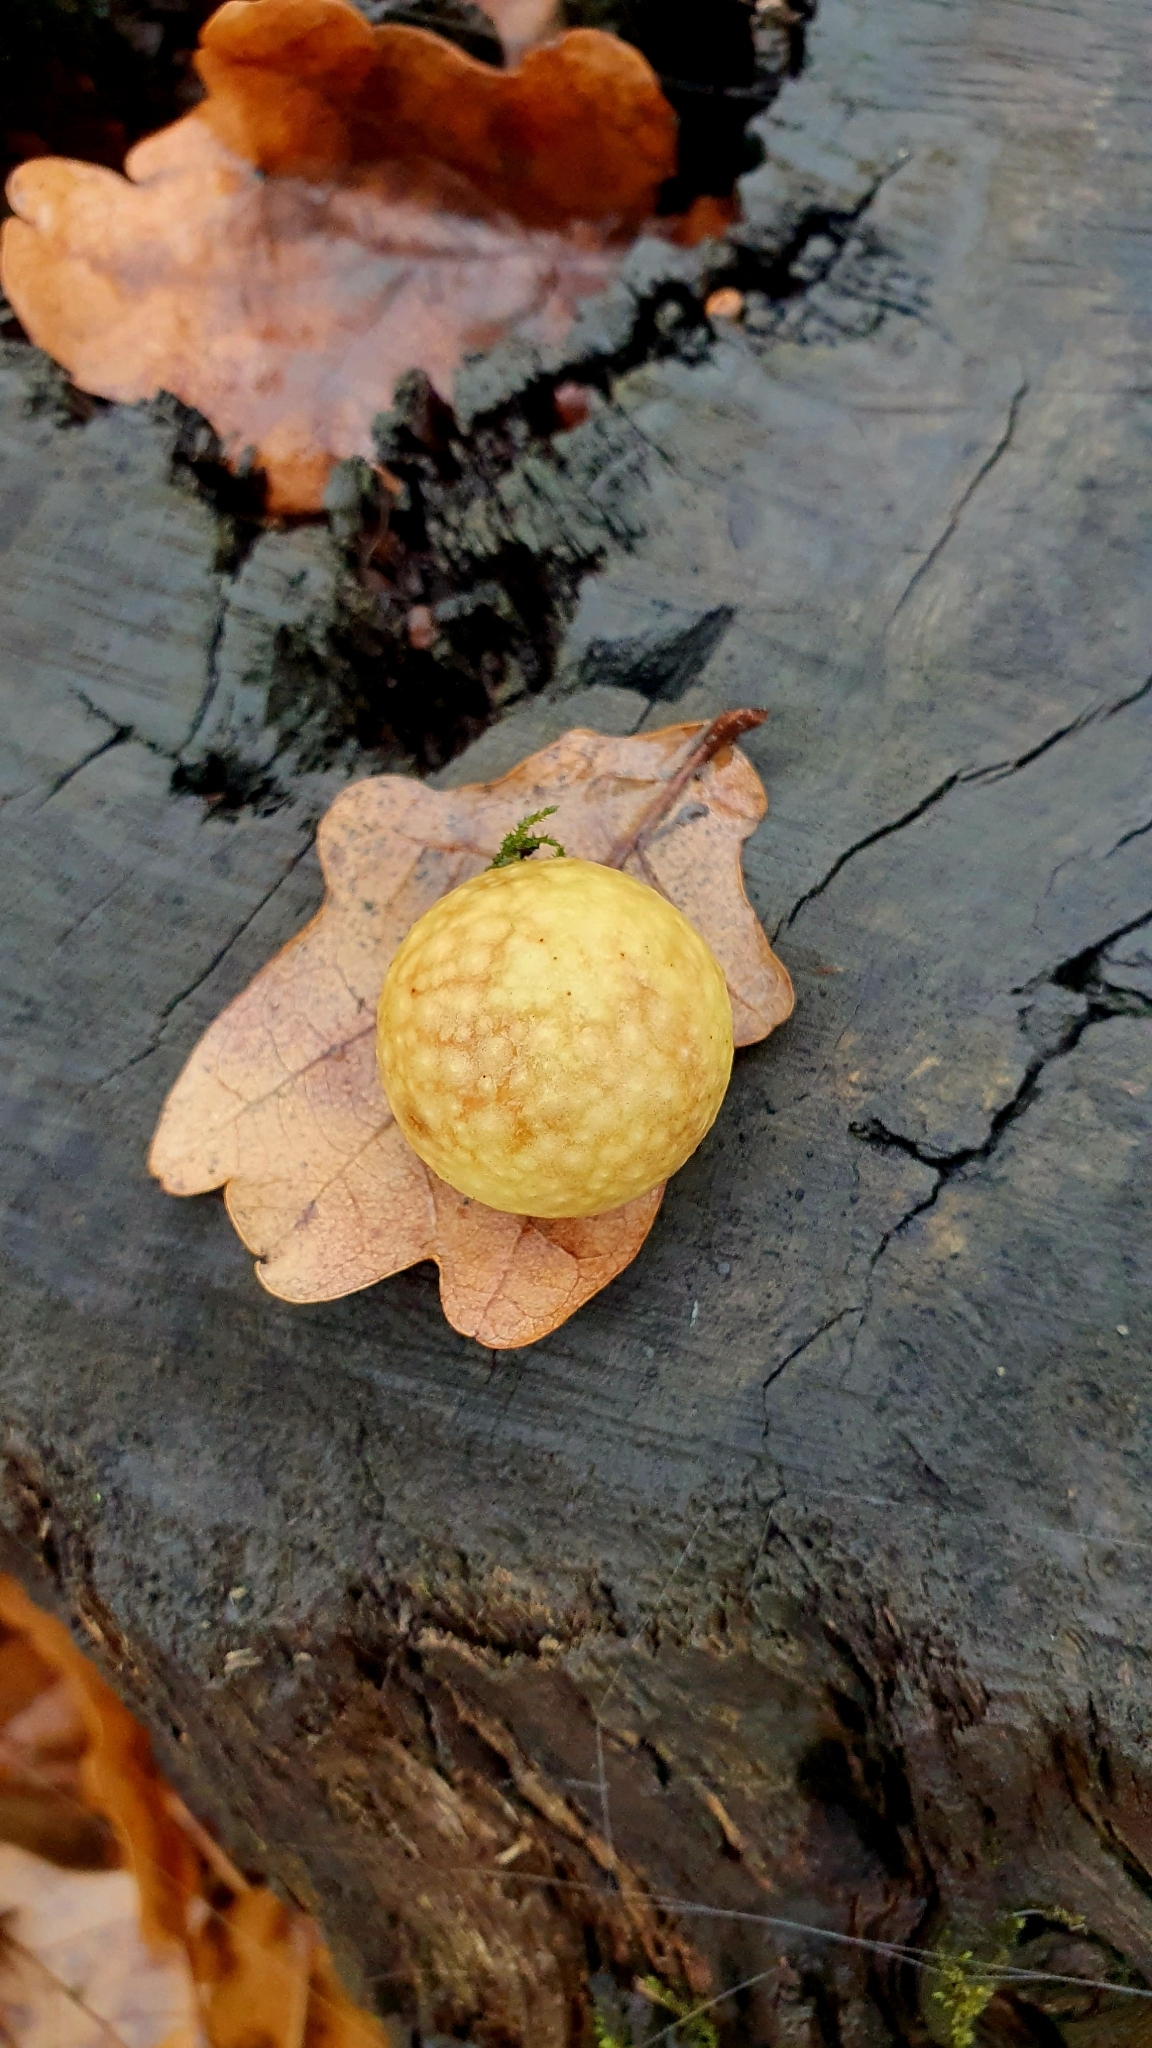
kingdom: Animalia
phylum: Arthropoda
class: Insecta
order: Hymenoptera
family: Cynipidae
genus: Cynips
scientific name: Cynips quercusfolii
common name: Cherry gall
